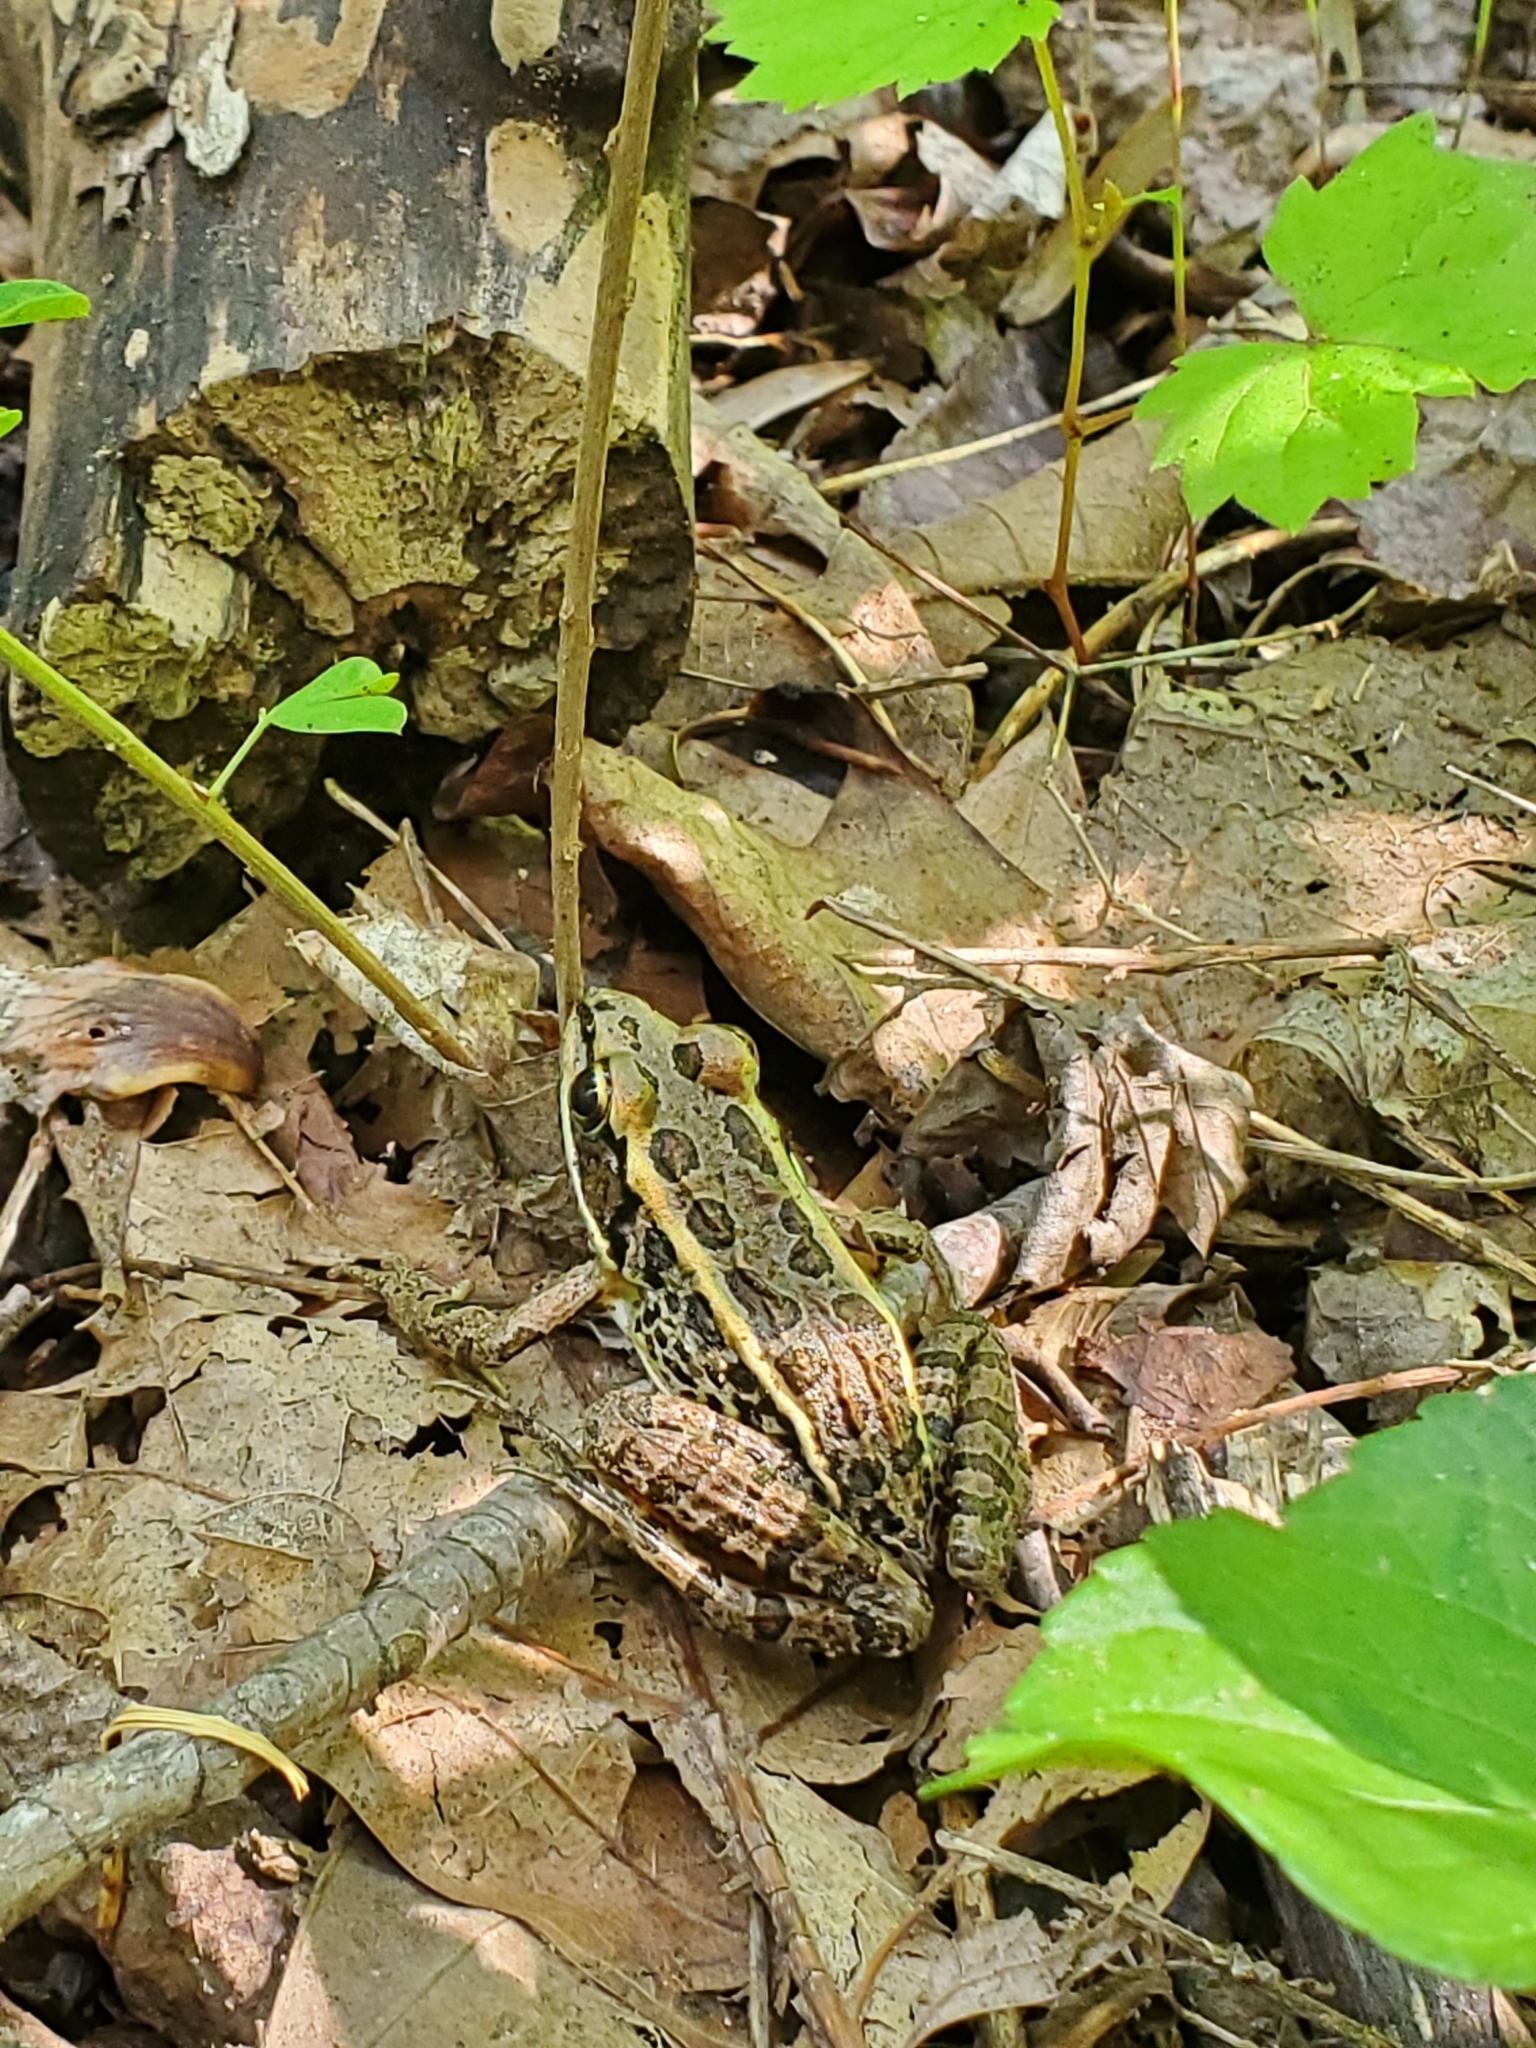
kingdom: Animalia
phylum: Chordata
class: Amphibia
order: Anura
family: Ranidae
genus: Lithobates
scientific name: Lithobates palustris
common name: Pickerel frog
